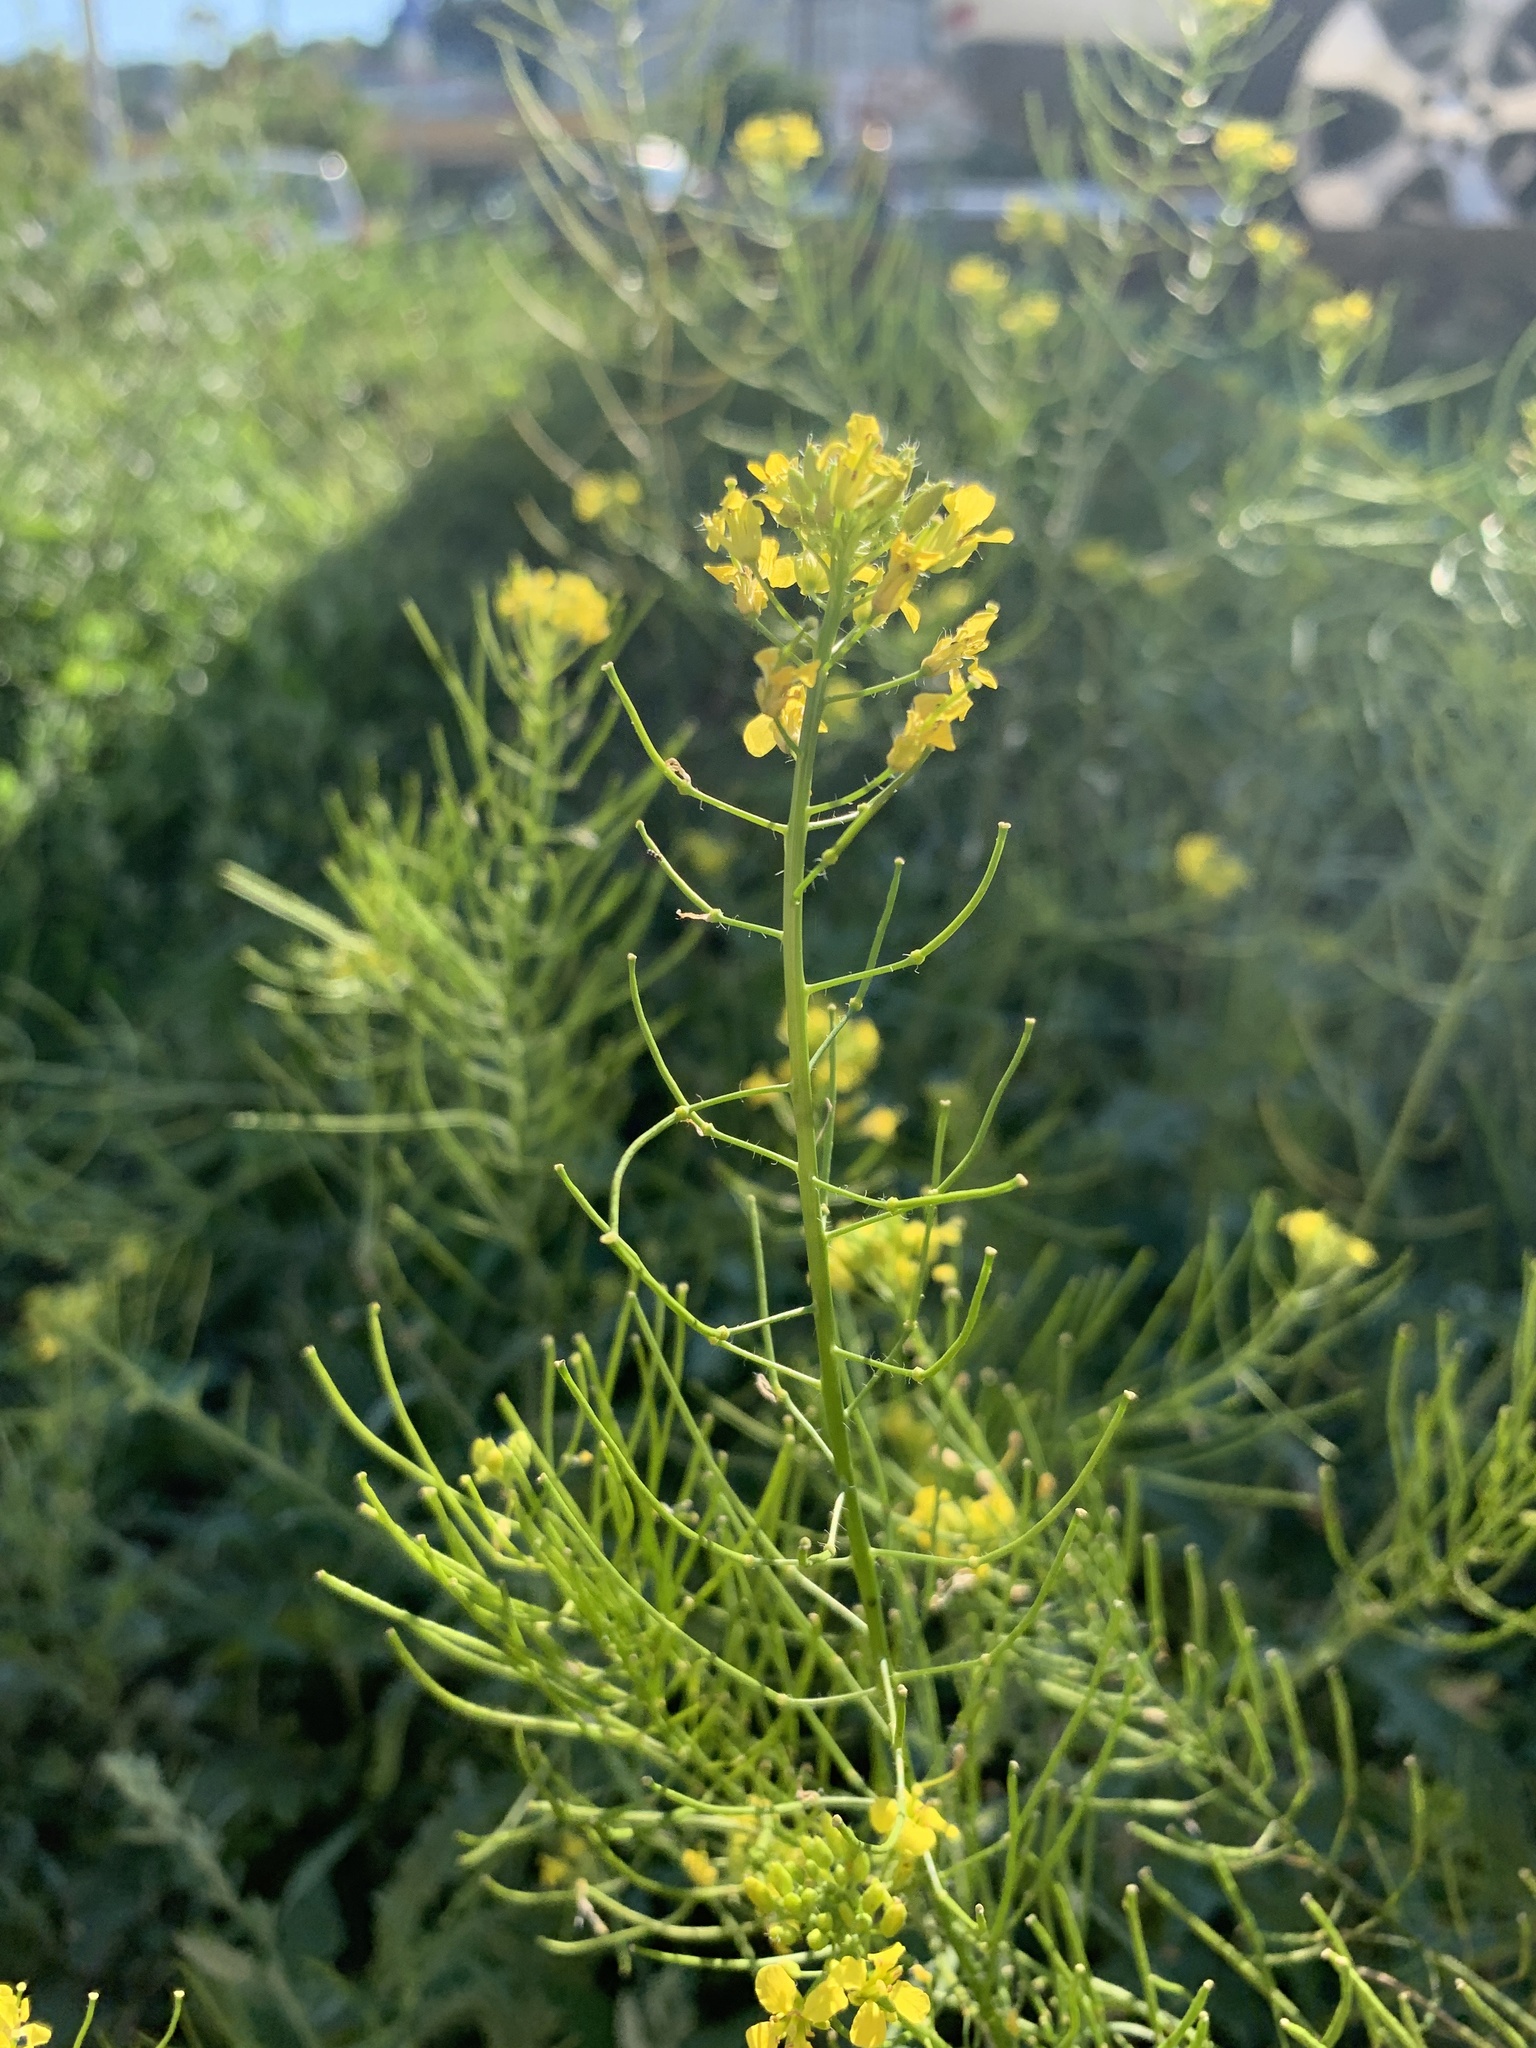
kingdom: Plantae
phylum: Tracheophyta
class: Magnoliopsida
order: Brassicales
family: Brassicaceae
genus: Sisymbrium
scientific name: Sisymbrium loeselii
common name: False london-rocket
